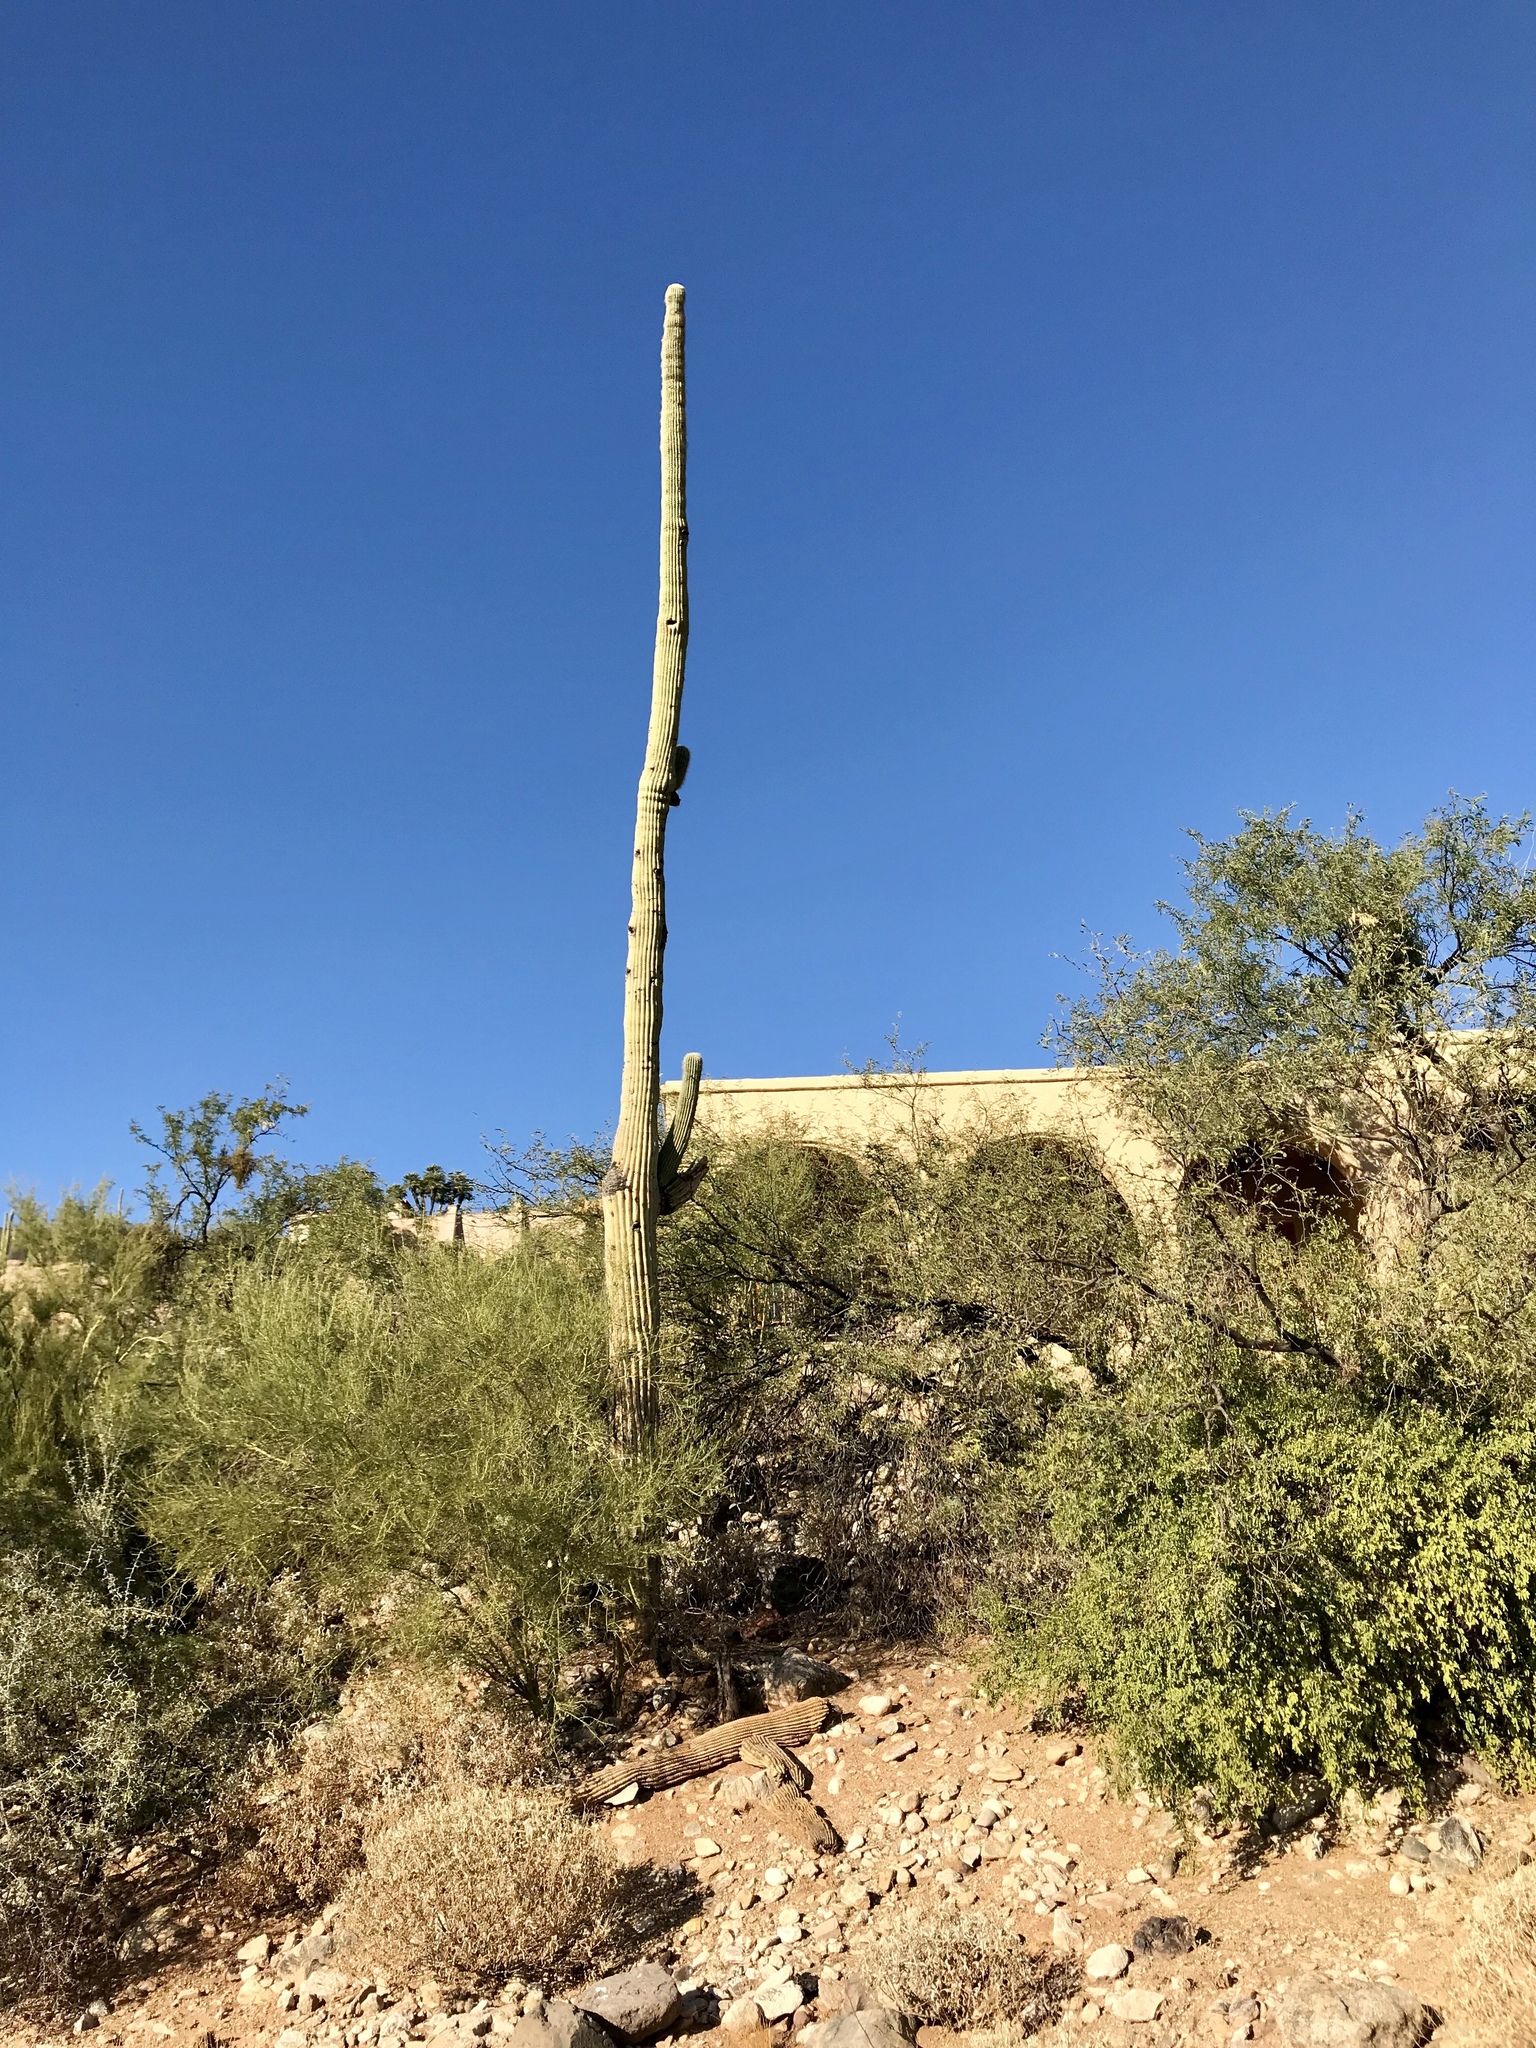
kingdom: Plantae
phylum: Tracheophyta
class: Magnoliopsida
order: Caryophyllales
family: Cactaceae
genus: Carnegiea
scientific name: Carnegiea gigantea
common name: Saguaro
